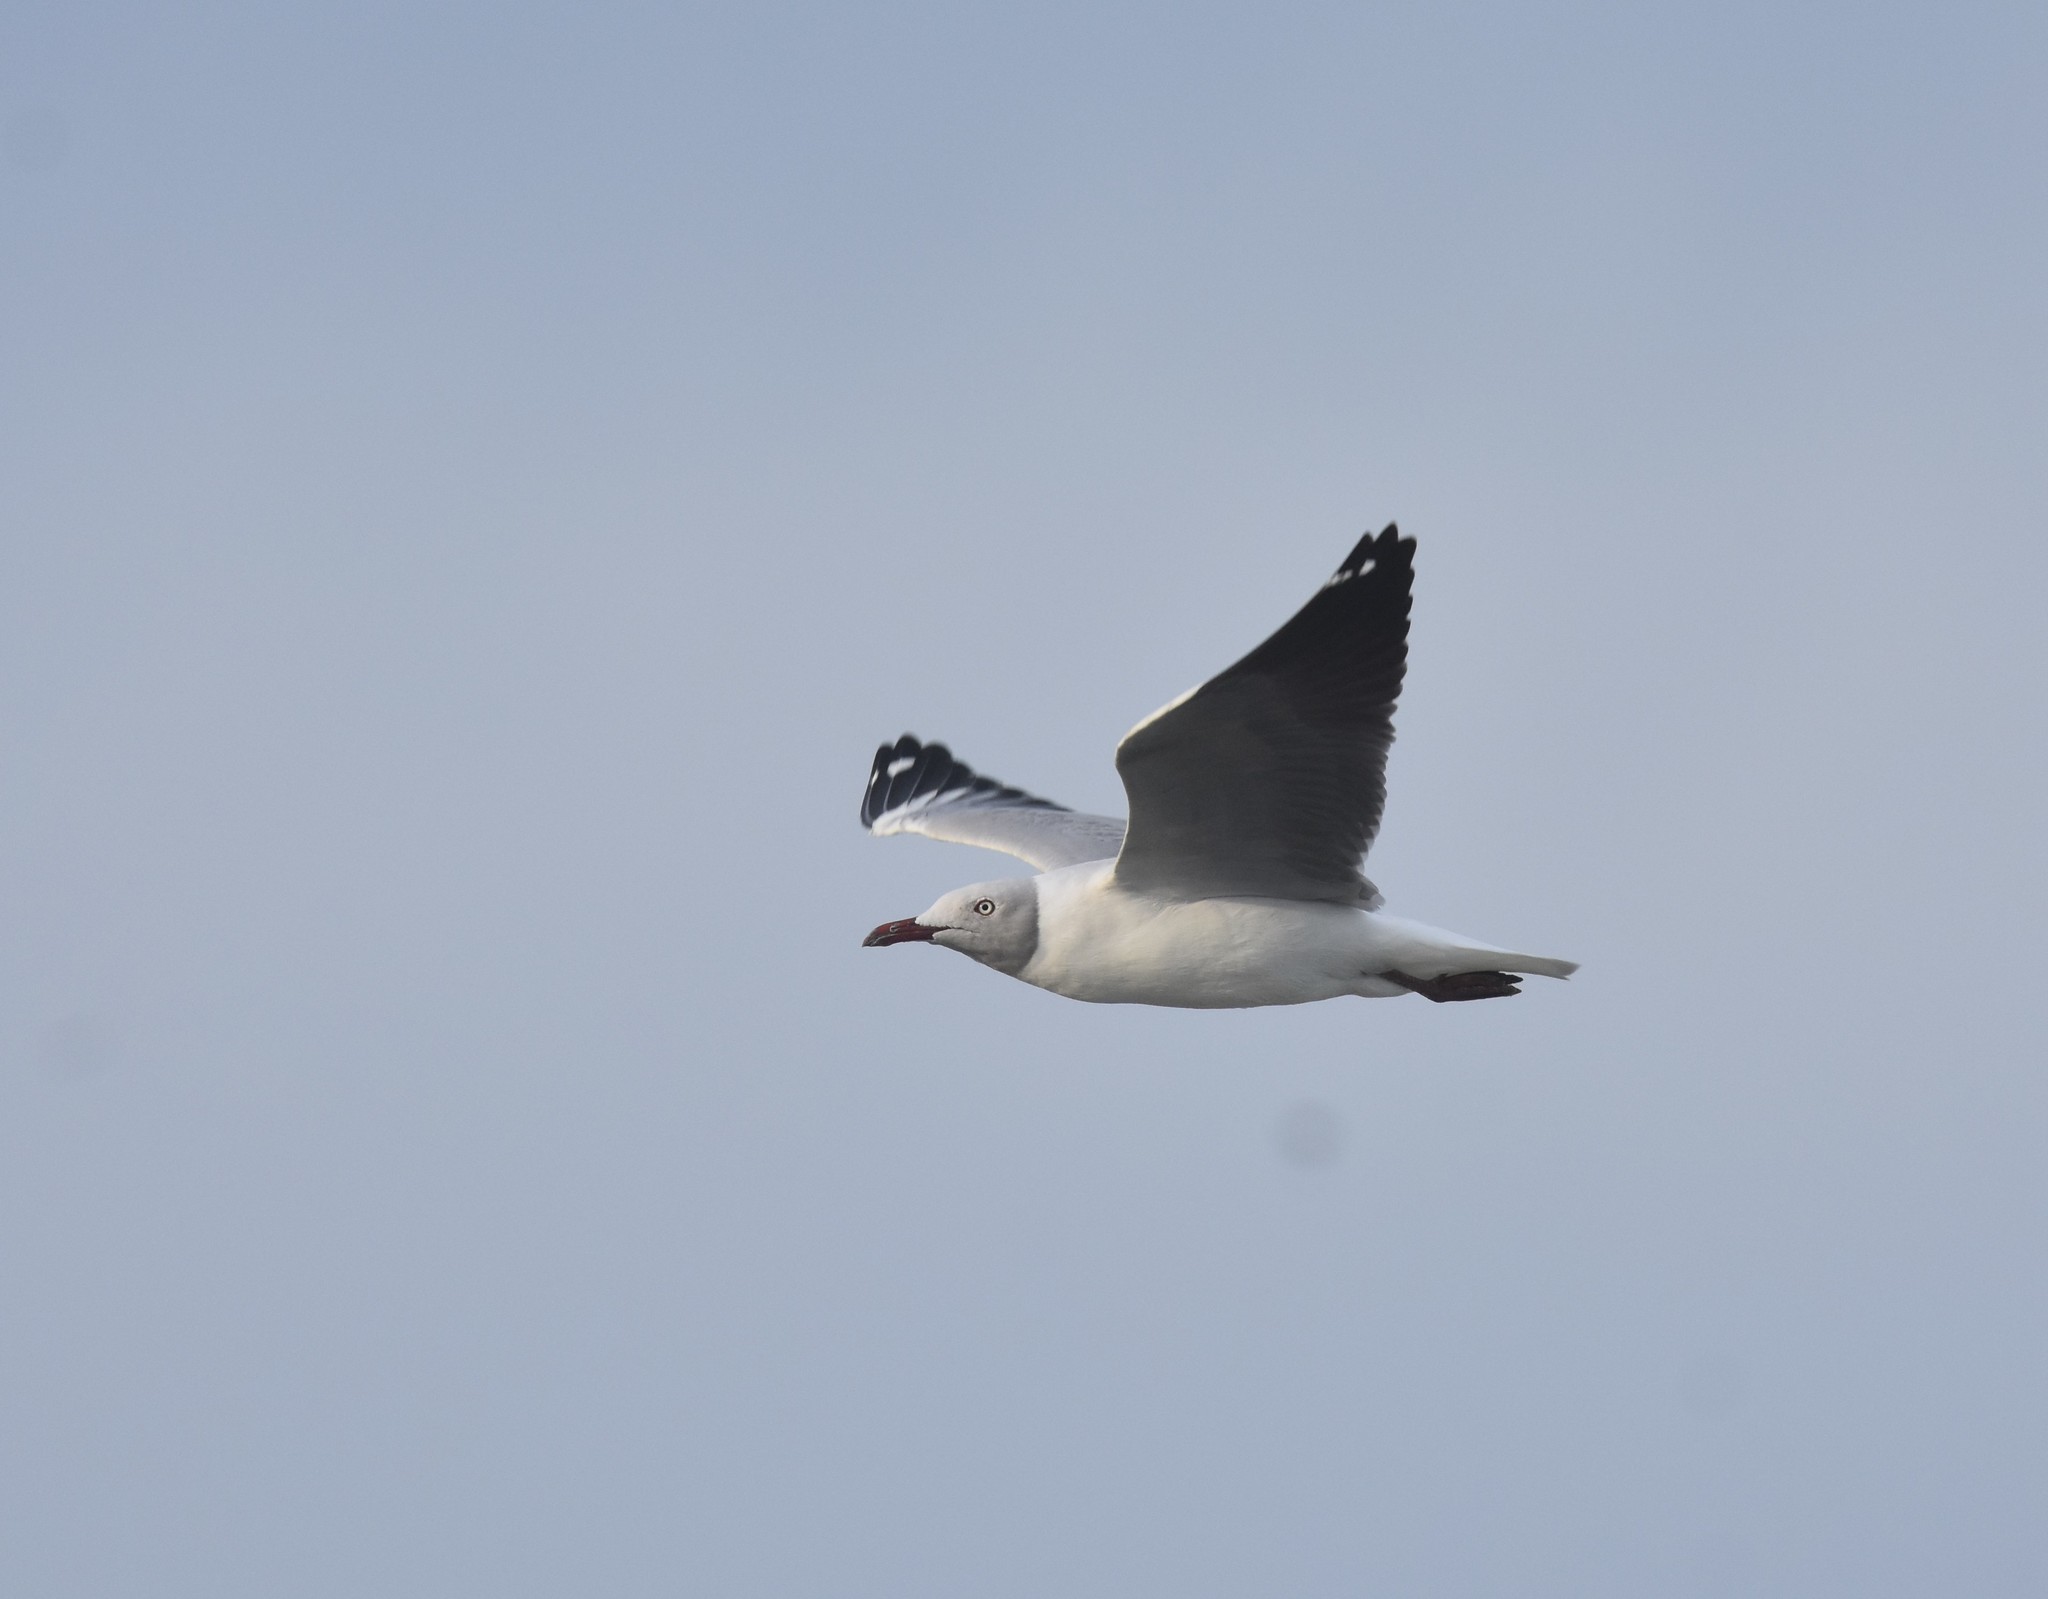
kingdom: Animalia
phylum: Chordata
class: Aves
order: Charadriiformes
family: Laridae
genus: Chroicocephalus
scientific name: Chroicocephalus cirrocephalus
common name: Grey-headed gull
